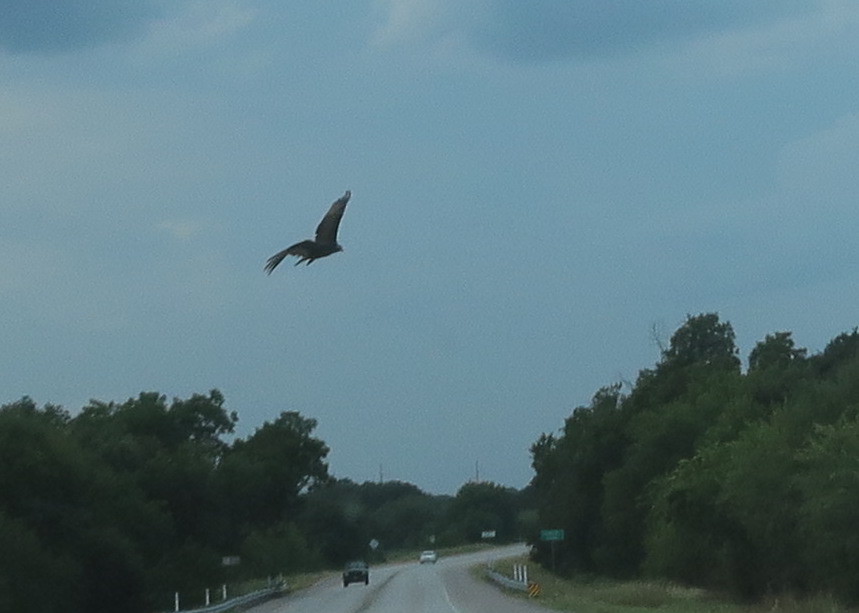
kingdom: Animalia
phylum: Chordata
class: Aves
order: Accipitriformes
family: Cathartidae
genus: Cathartes
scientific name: Cathartes aura
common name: Turkey vulture
